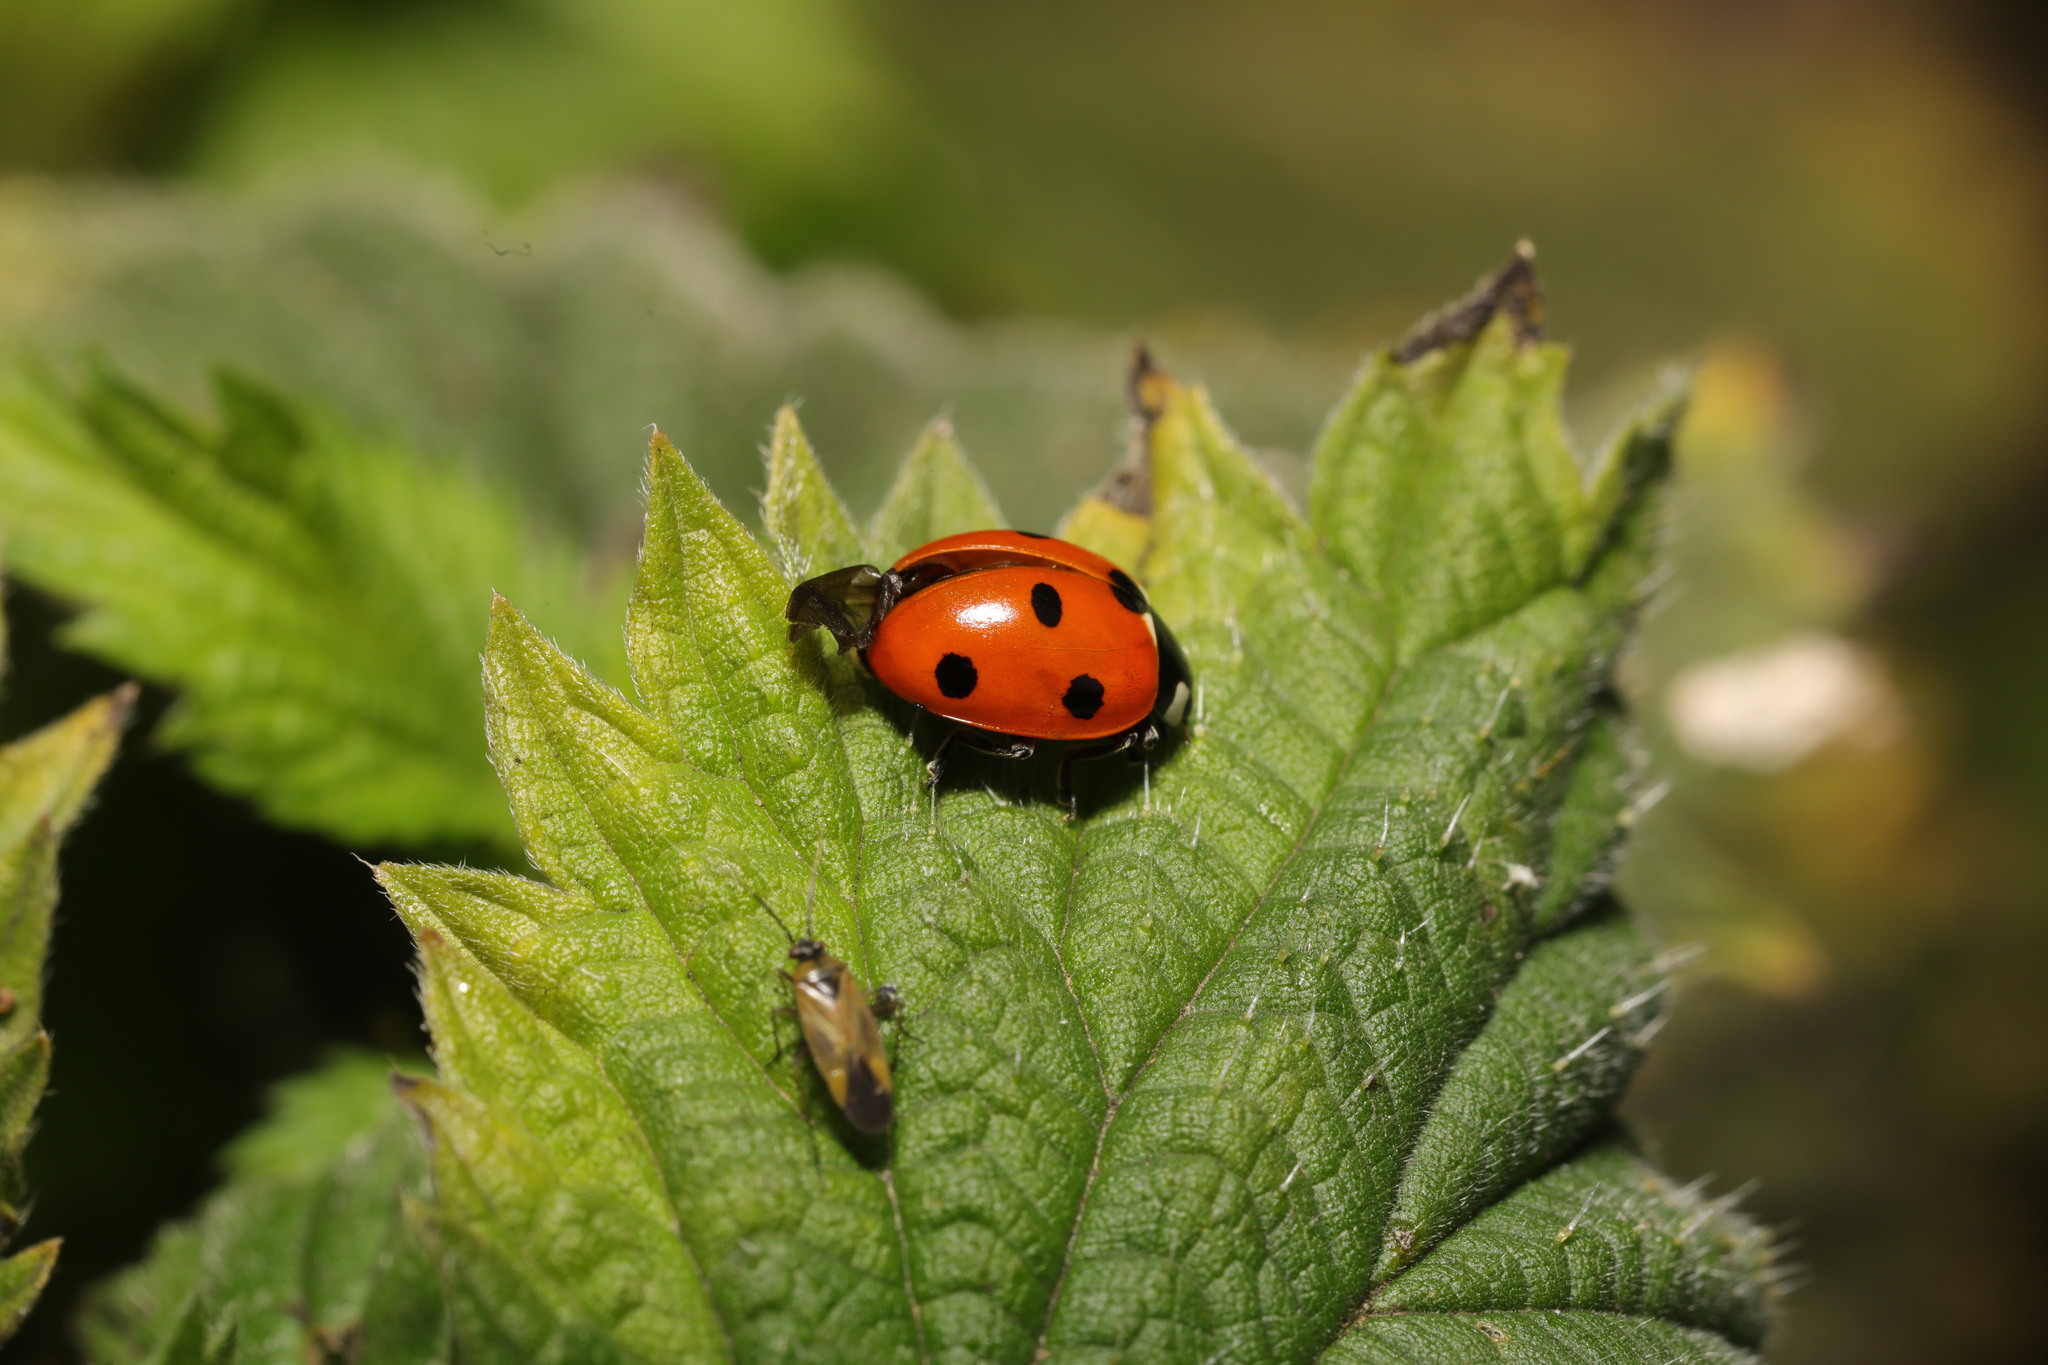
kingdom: Animalia
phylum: Arthropoda
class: Insecta
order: Coleoptera
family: Coccinellidae
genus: Coccinella
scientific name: Coccinella septempunctata
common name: Sevenspotted lady beetle
